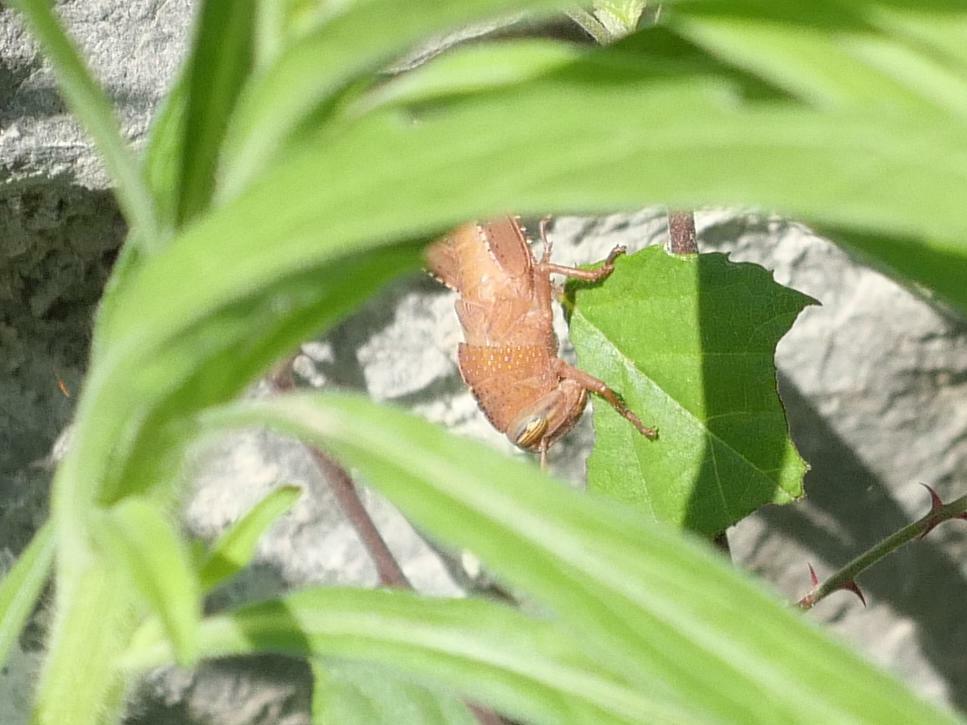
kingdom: Animalia
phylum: Arthropoda
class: Insecta
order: Orthoptera
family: Acrididae
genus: Anacridium
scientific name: Anacridium aegyptium
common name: Egyptian grasshopper
